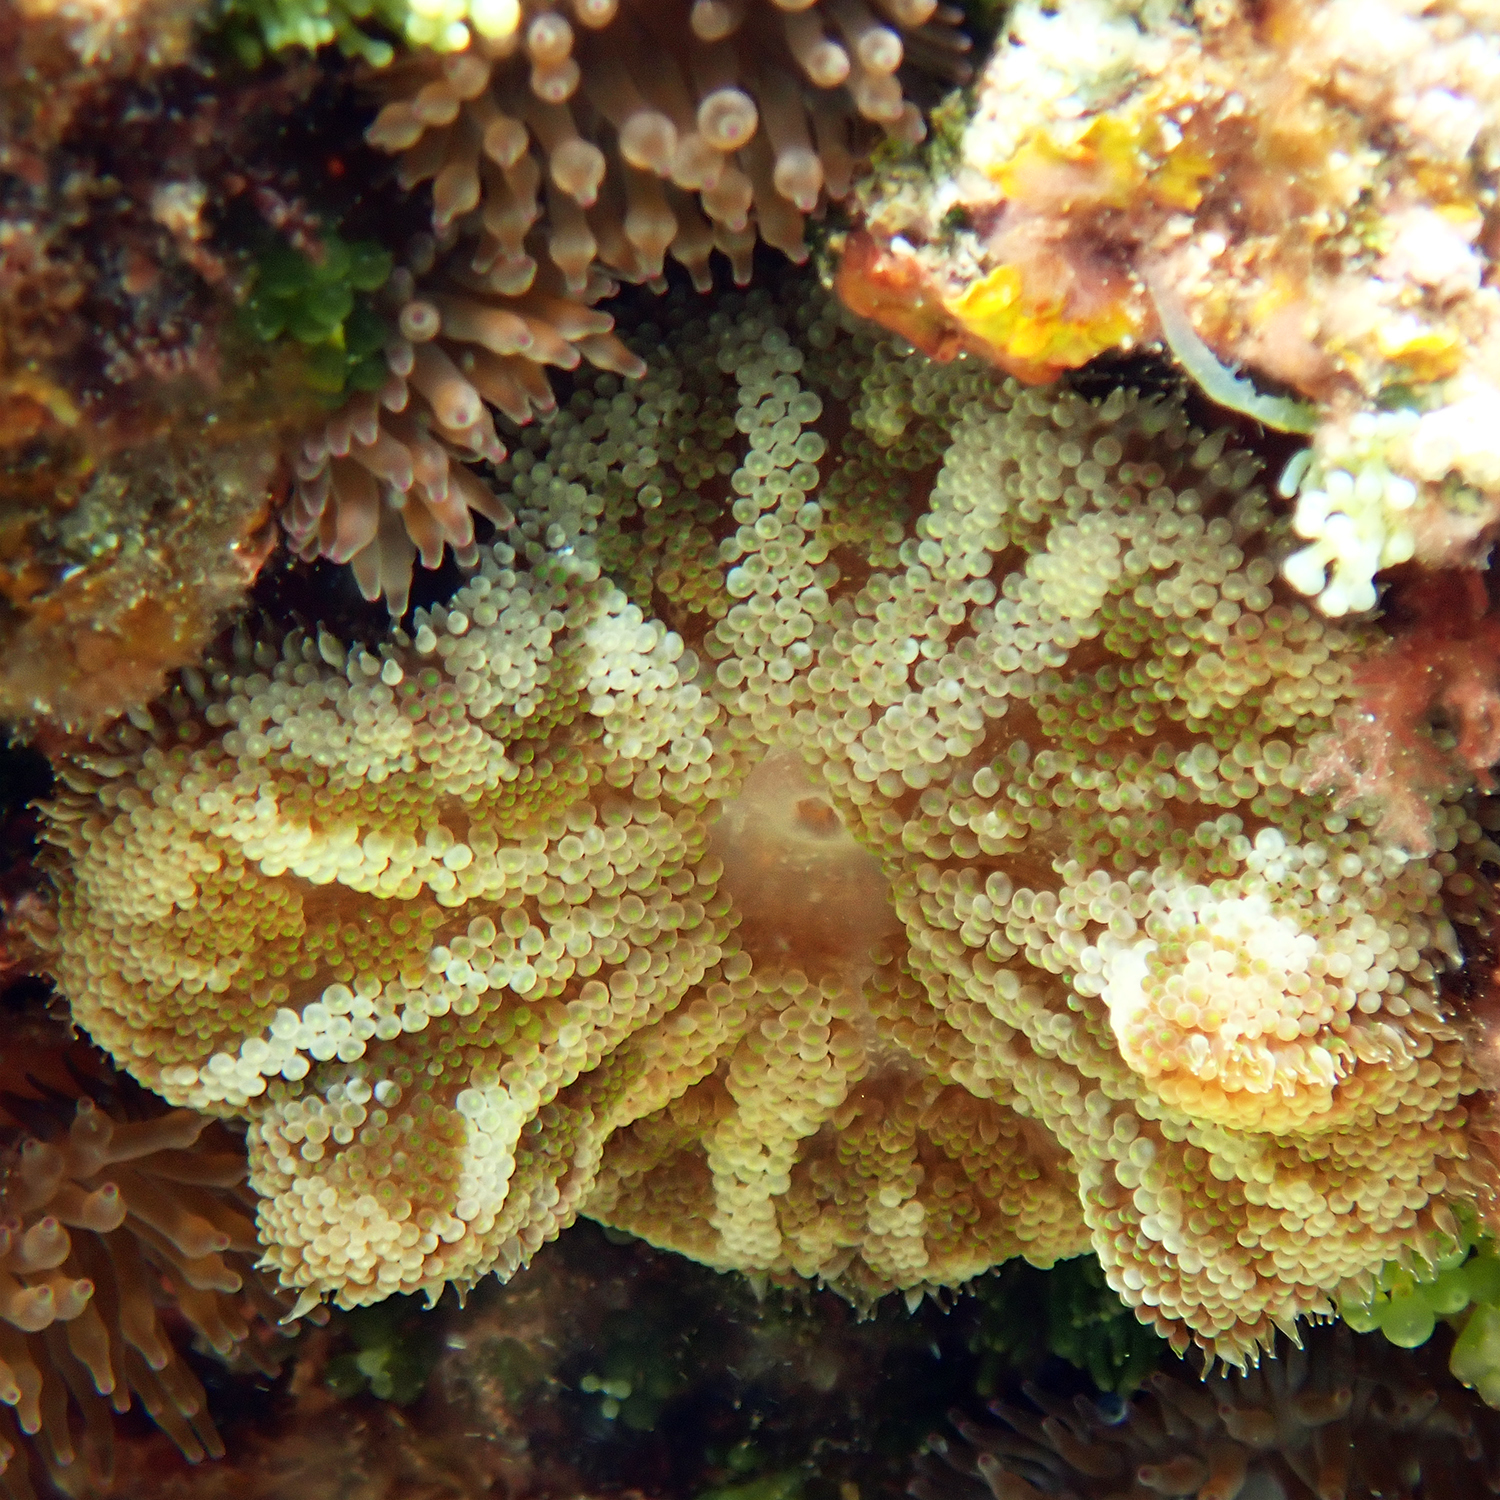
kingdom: Animalia
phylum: Cnidaria
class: Anthozoa
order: Actiniaria
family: Stichodactylidae
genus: Stichodactyla
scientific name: Stichodactyla tapetum
